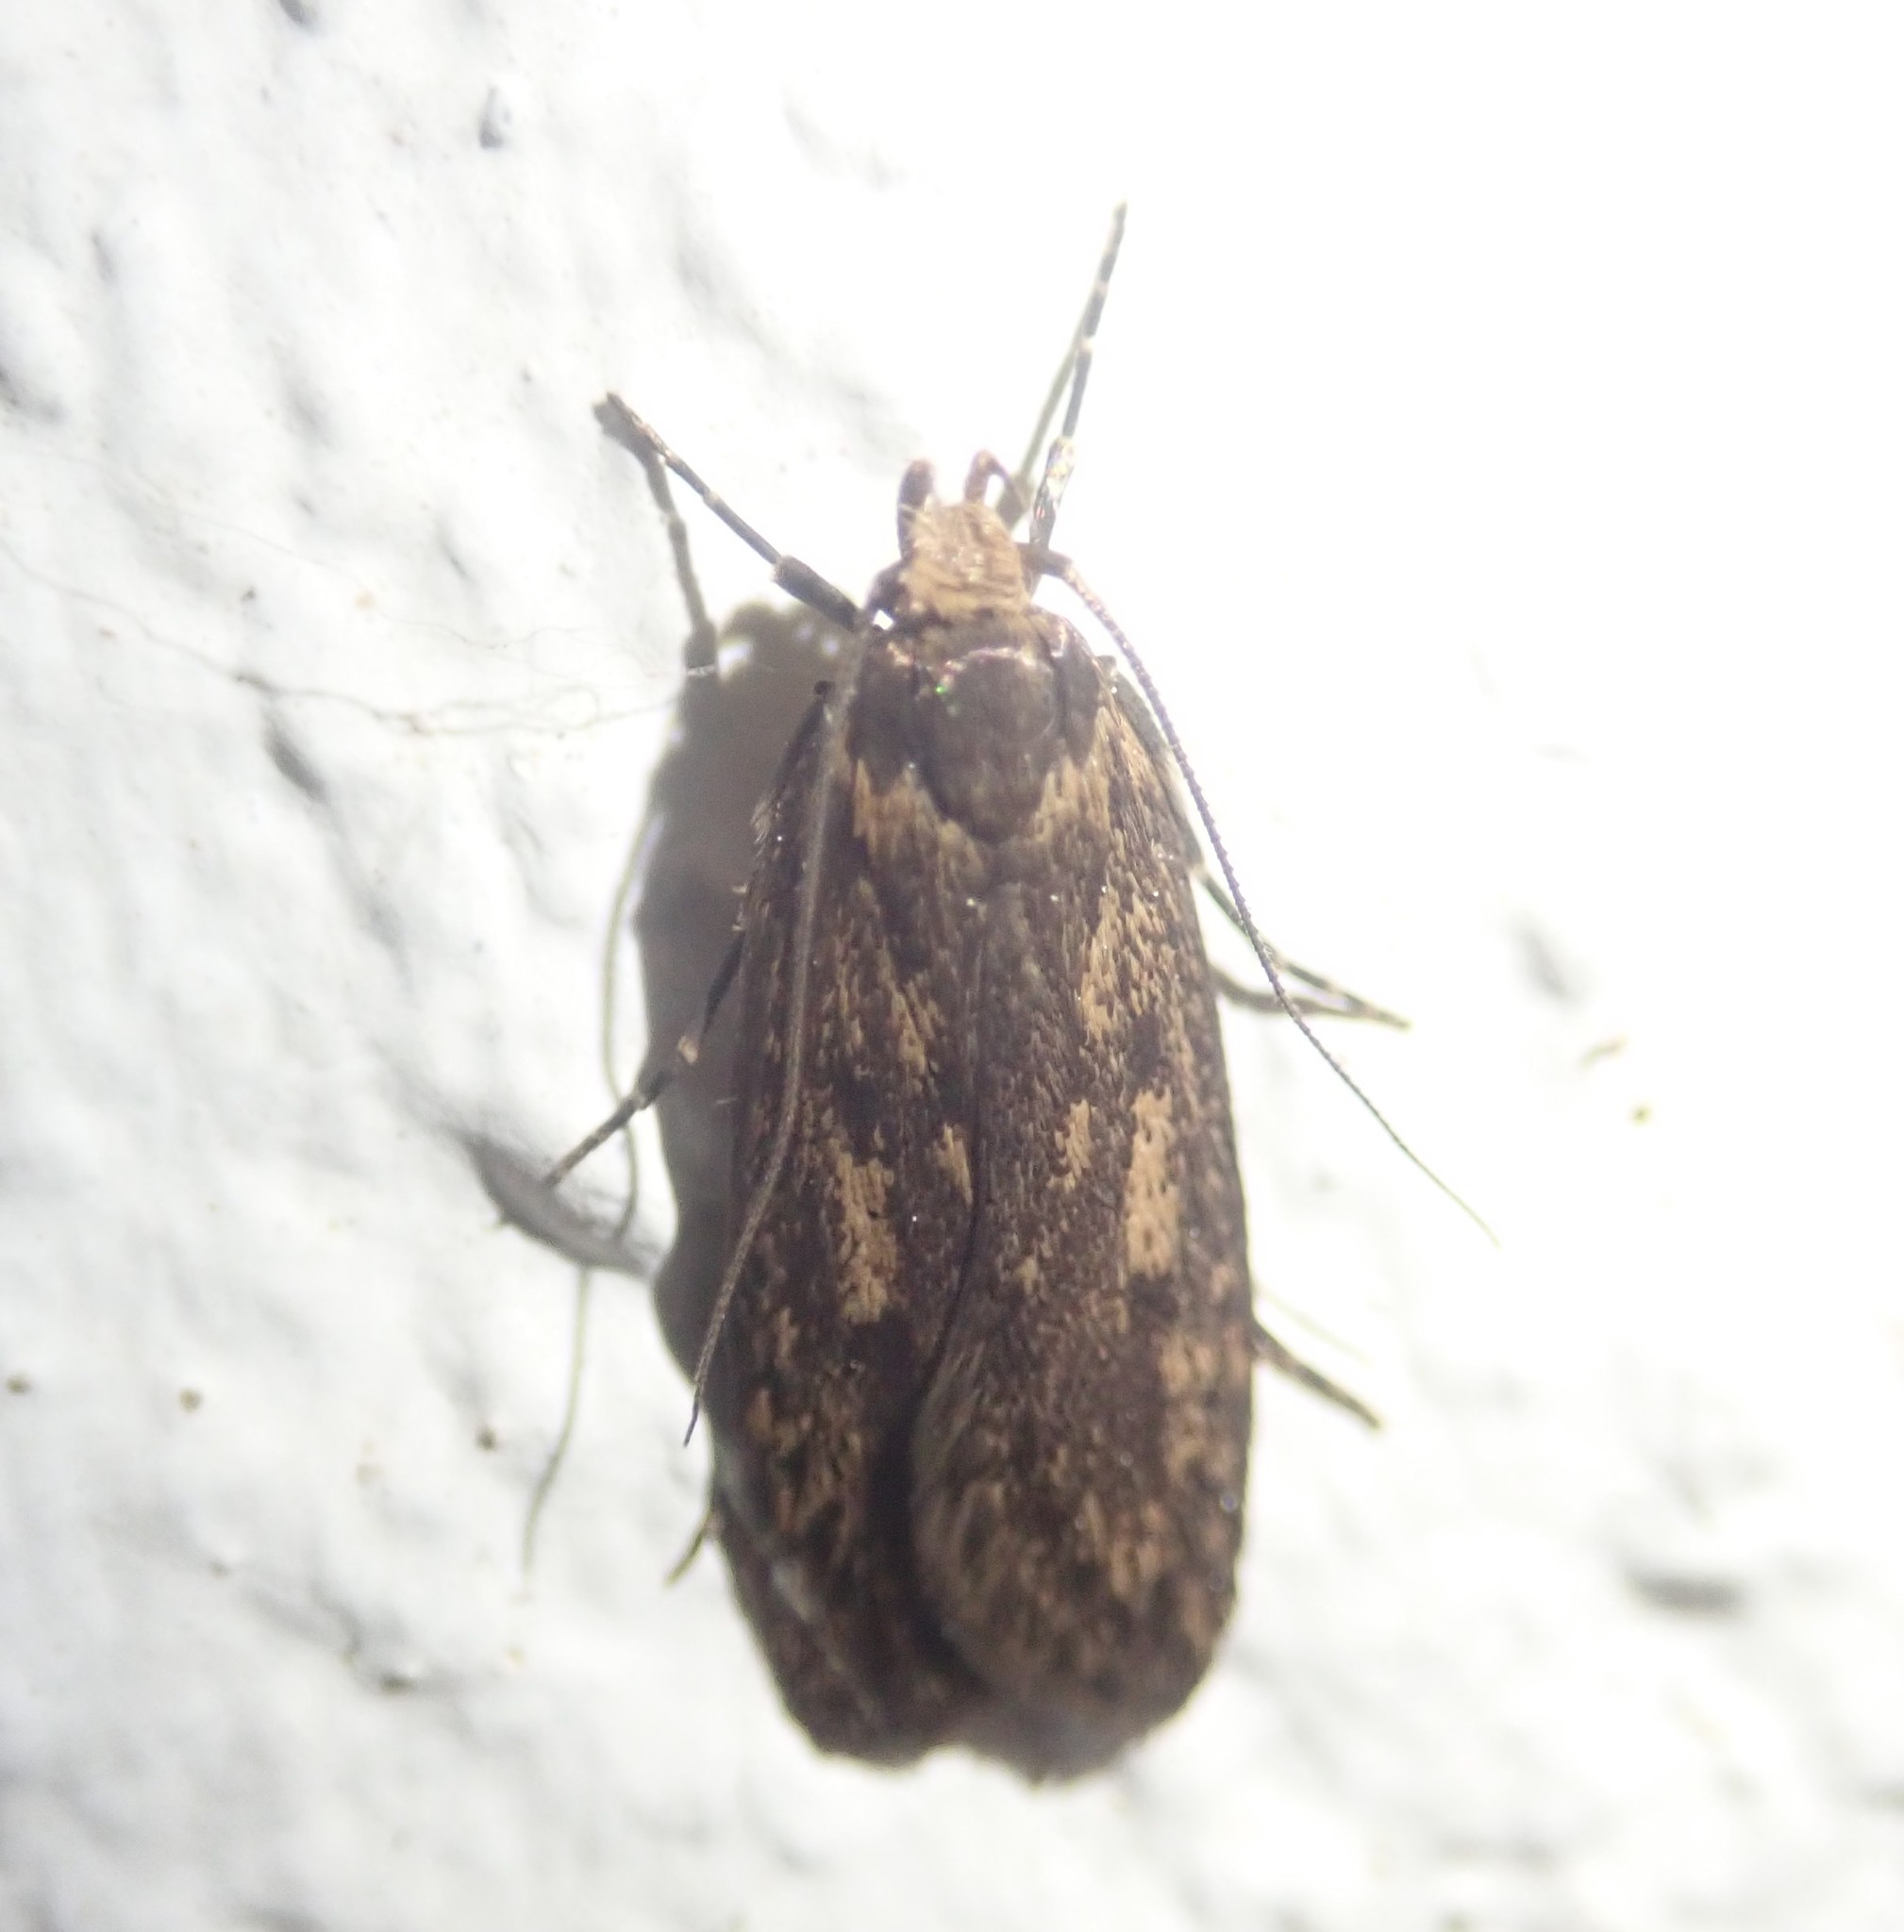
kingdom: Animalia
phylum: Arthropoda
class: Insecta
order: Lepidoptera
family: Oecophoridae
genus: Hofmannophila
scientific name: Hofmannophila pseudospretella
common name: Brown house moth
